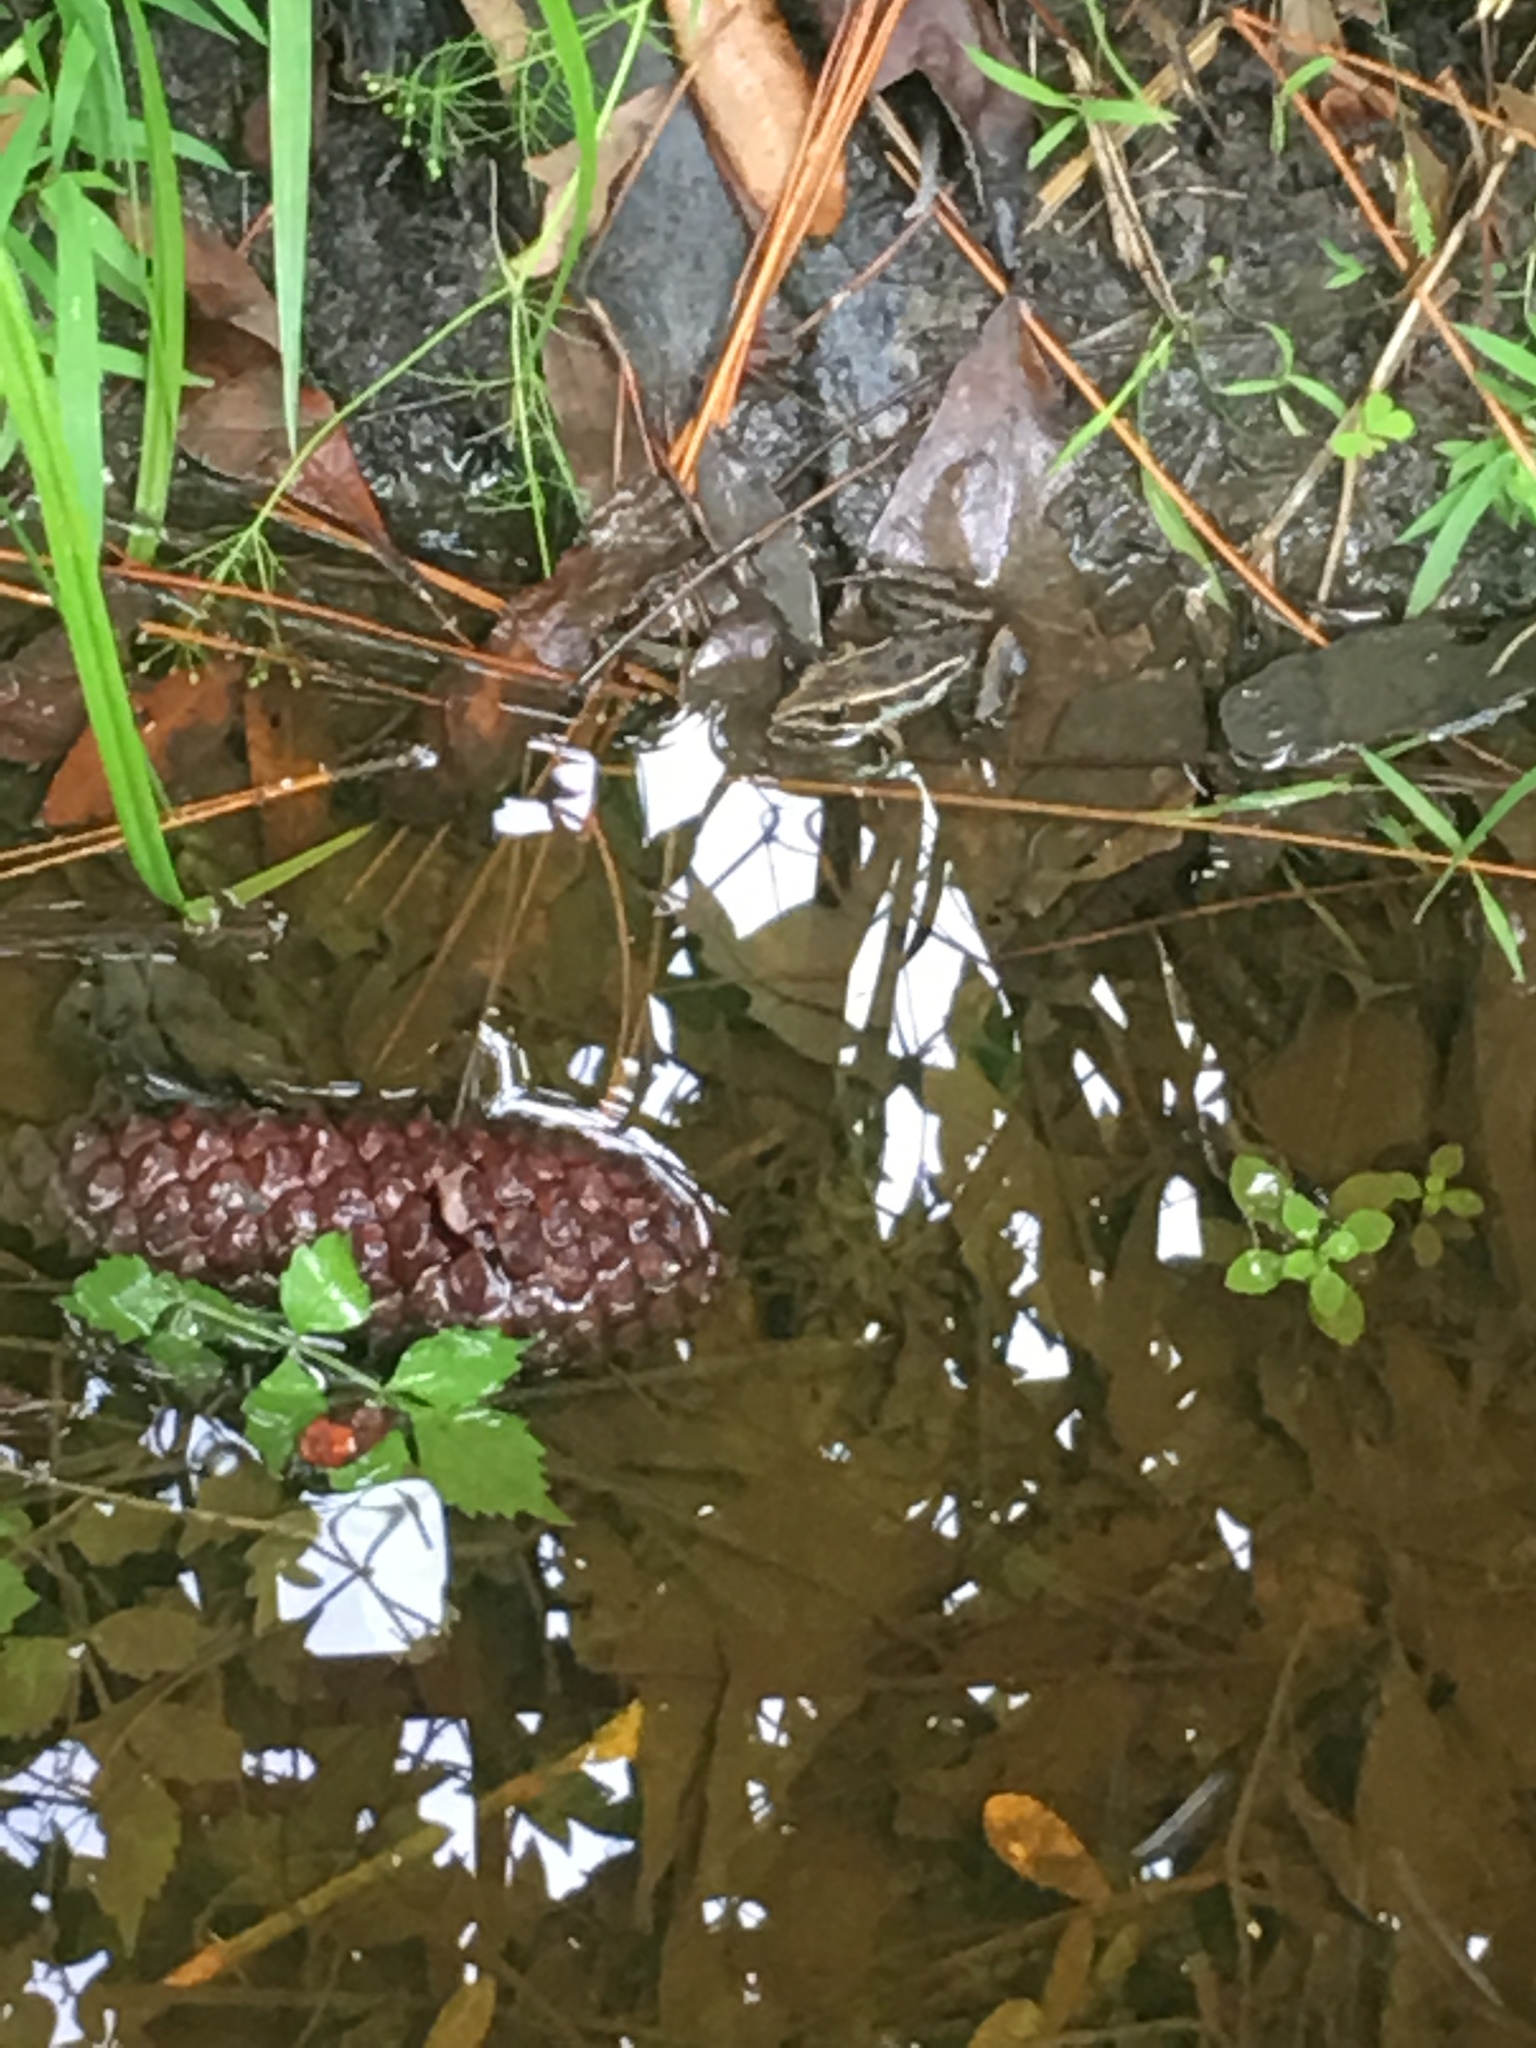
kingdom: Animalia
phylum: Chordata
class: Amphibia
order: Anura
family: Ranidae
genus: Lithobates
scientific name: Lithobates sphenocephalus
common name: Southern leopard frog
